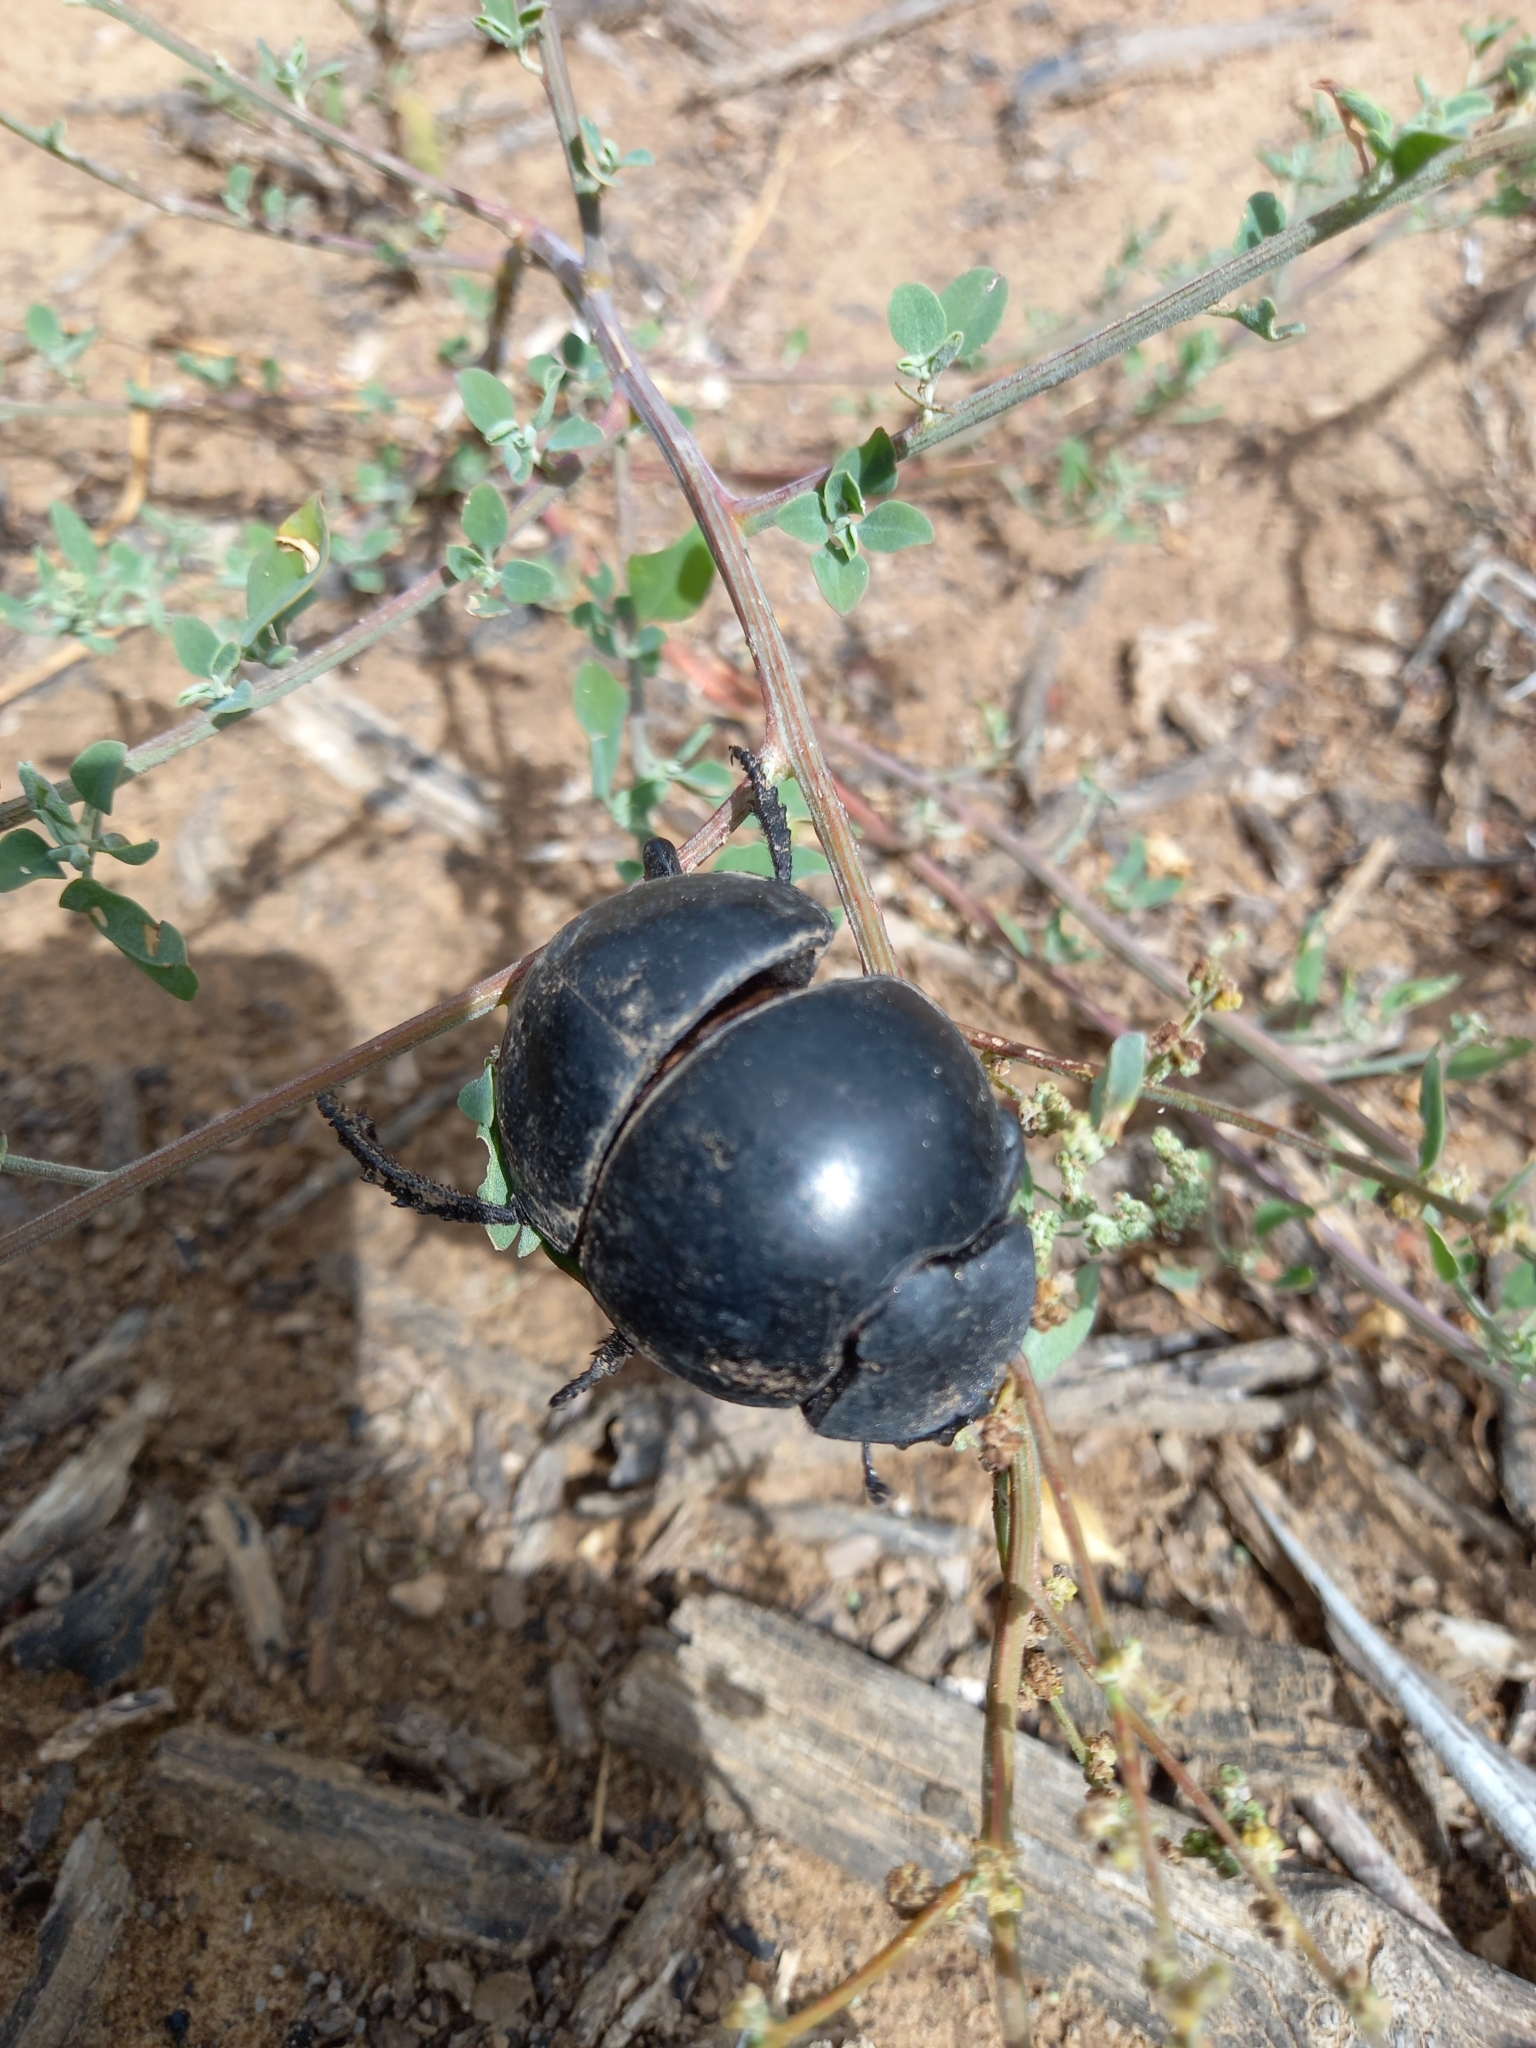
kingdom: Animalia
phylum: Arthropoda
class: Insecta
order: Coleoptera
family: Scarabaeidae
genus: Circellium
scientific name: Circellium bacchus
